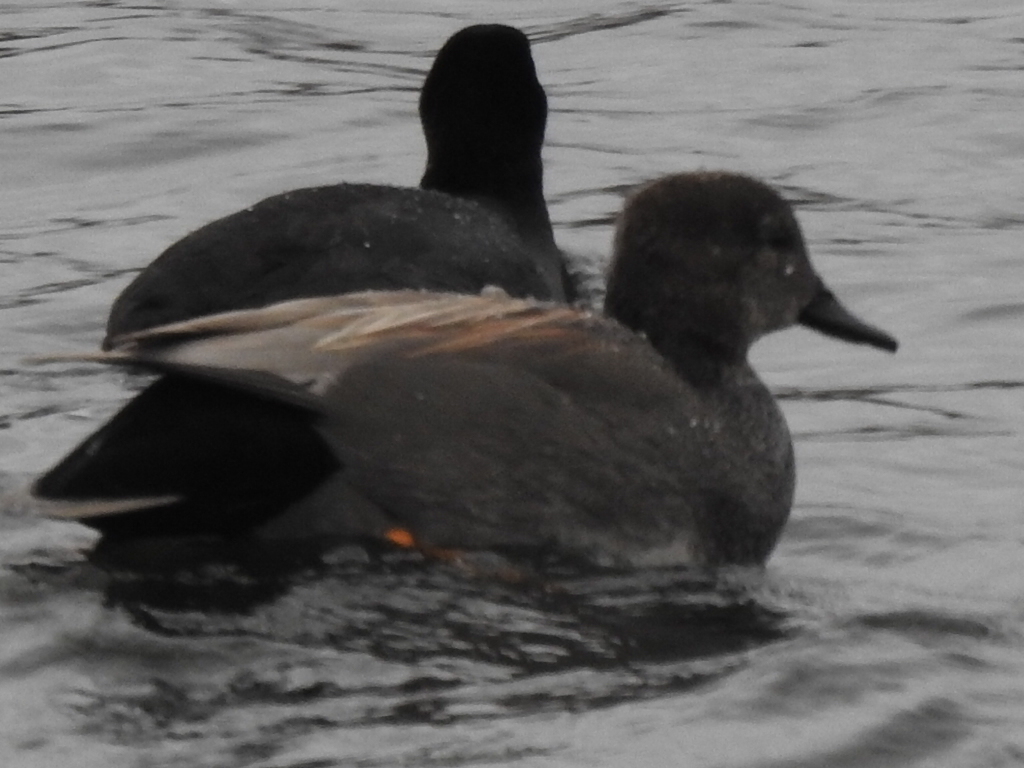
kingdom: Animalia
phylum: Chordata
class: Aves
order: Anseriformes
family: Anatidae
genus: Mareca
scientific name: Mareca strepera
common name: Gadwall
